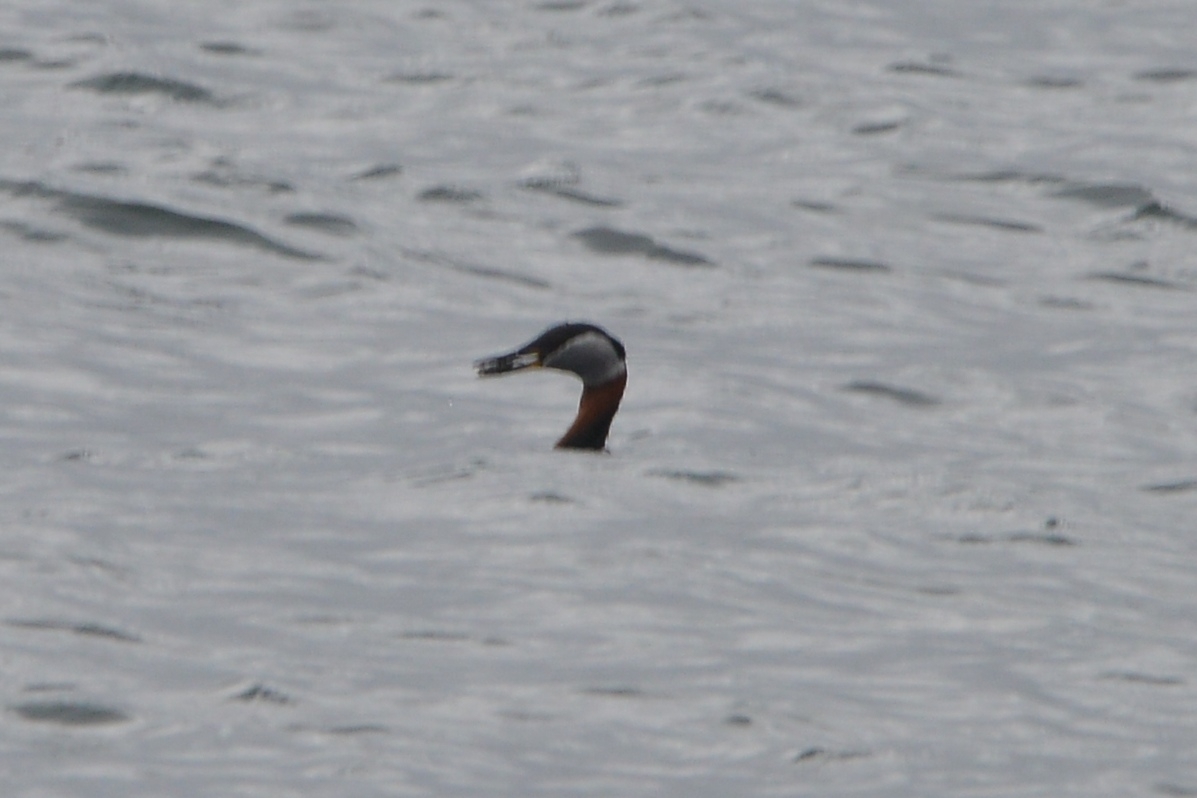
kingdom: Animalia
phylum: Chordata
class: Aves
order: Podicipediformes
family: Podicipedidae
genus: Podiceps
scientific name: Podiceps grisegena
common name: Red-necked grebe
